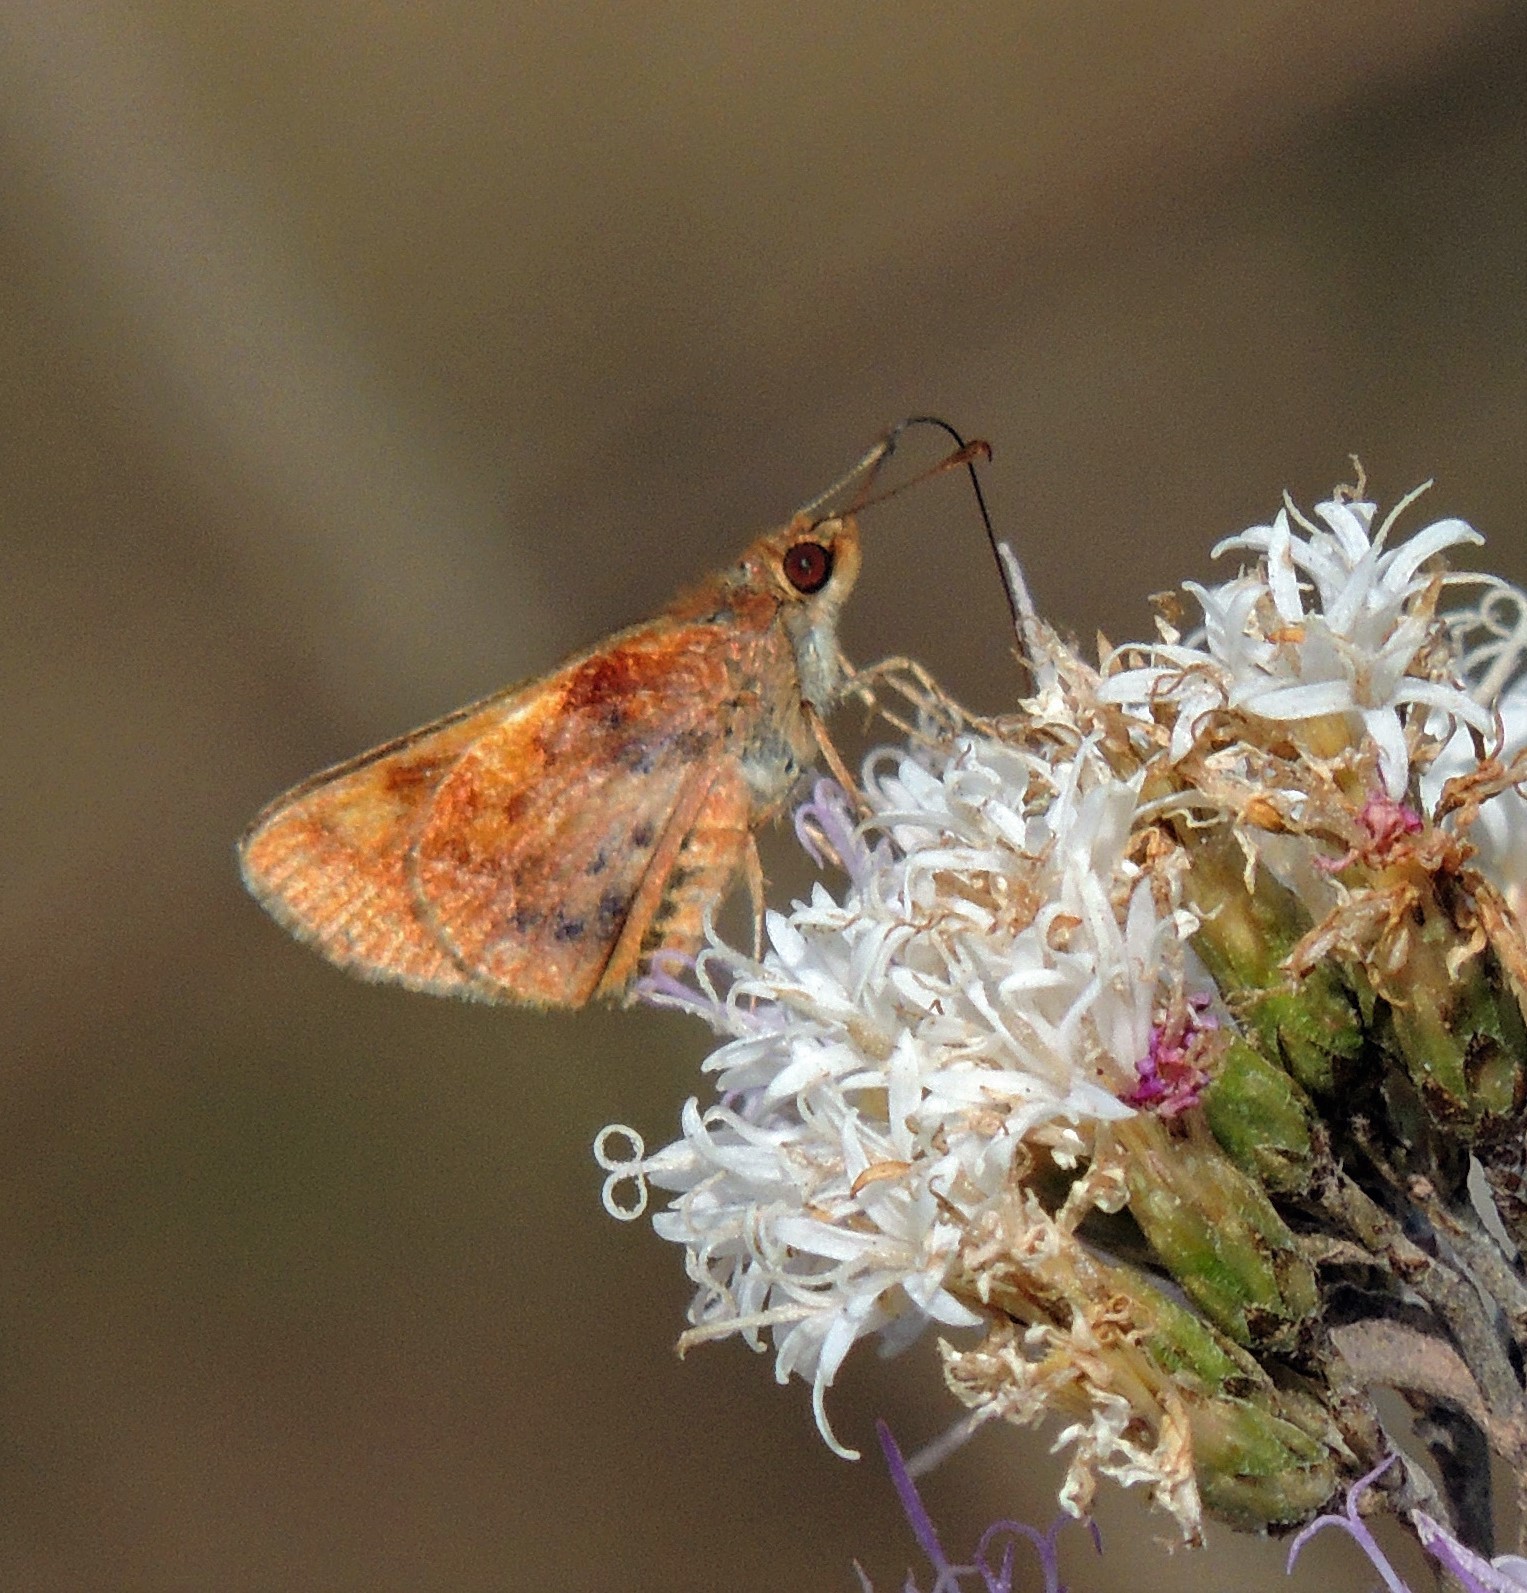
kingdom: Animalia
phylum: Arthropoda
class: Insecta
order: Lepidoptera
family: Hesperiidae
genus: Moeris
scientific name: Moeris
